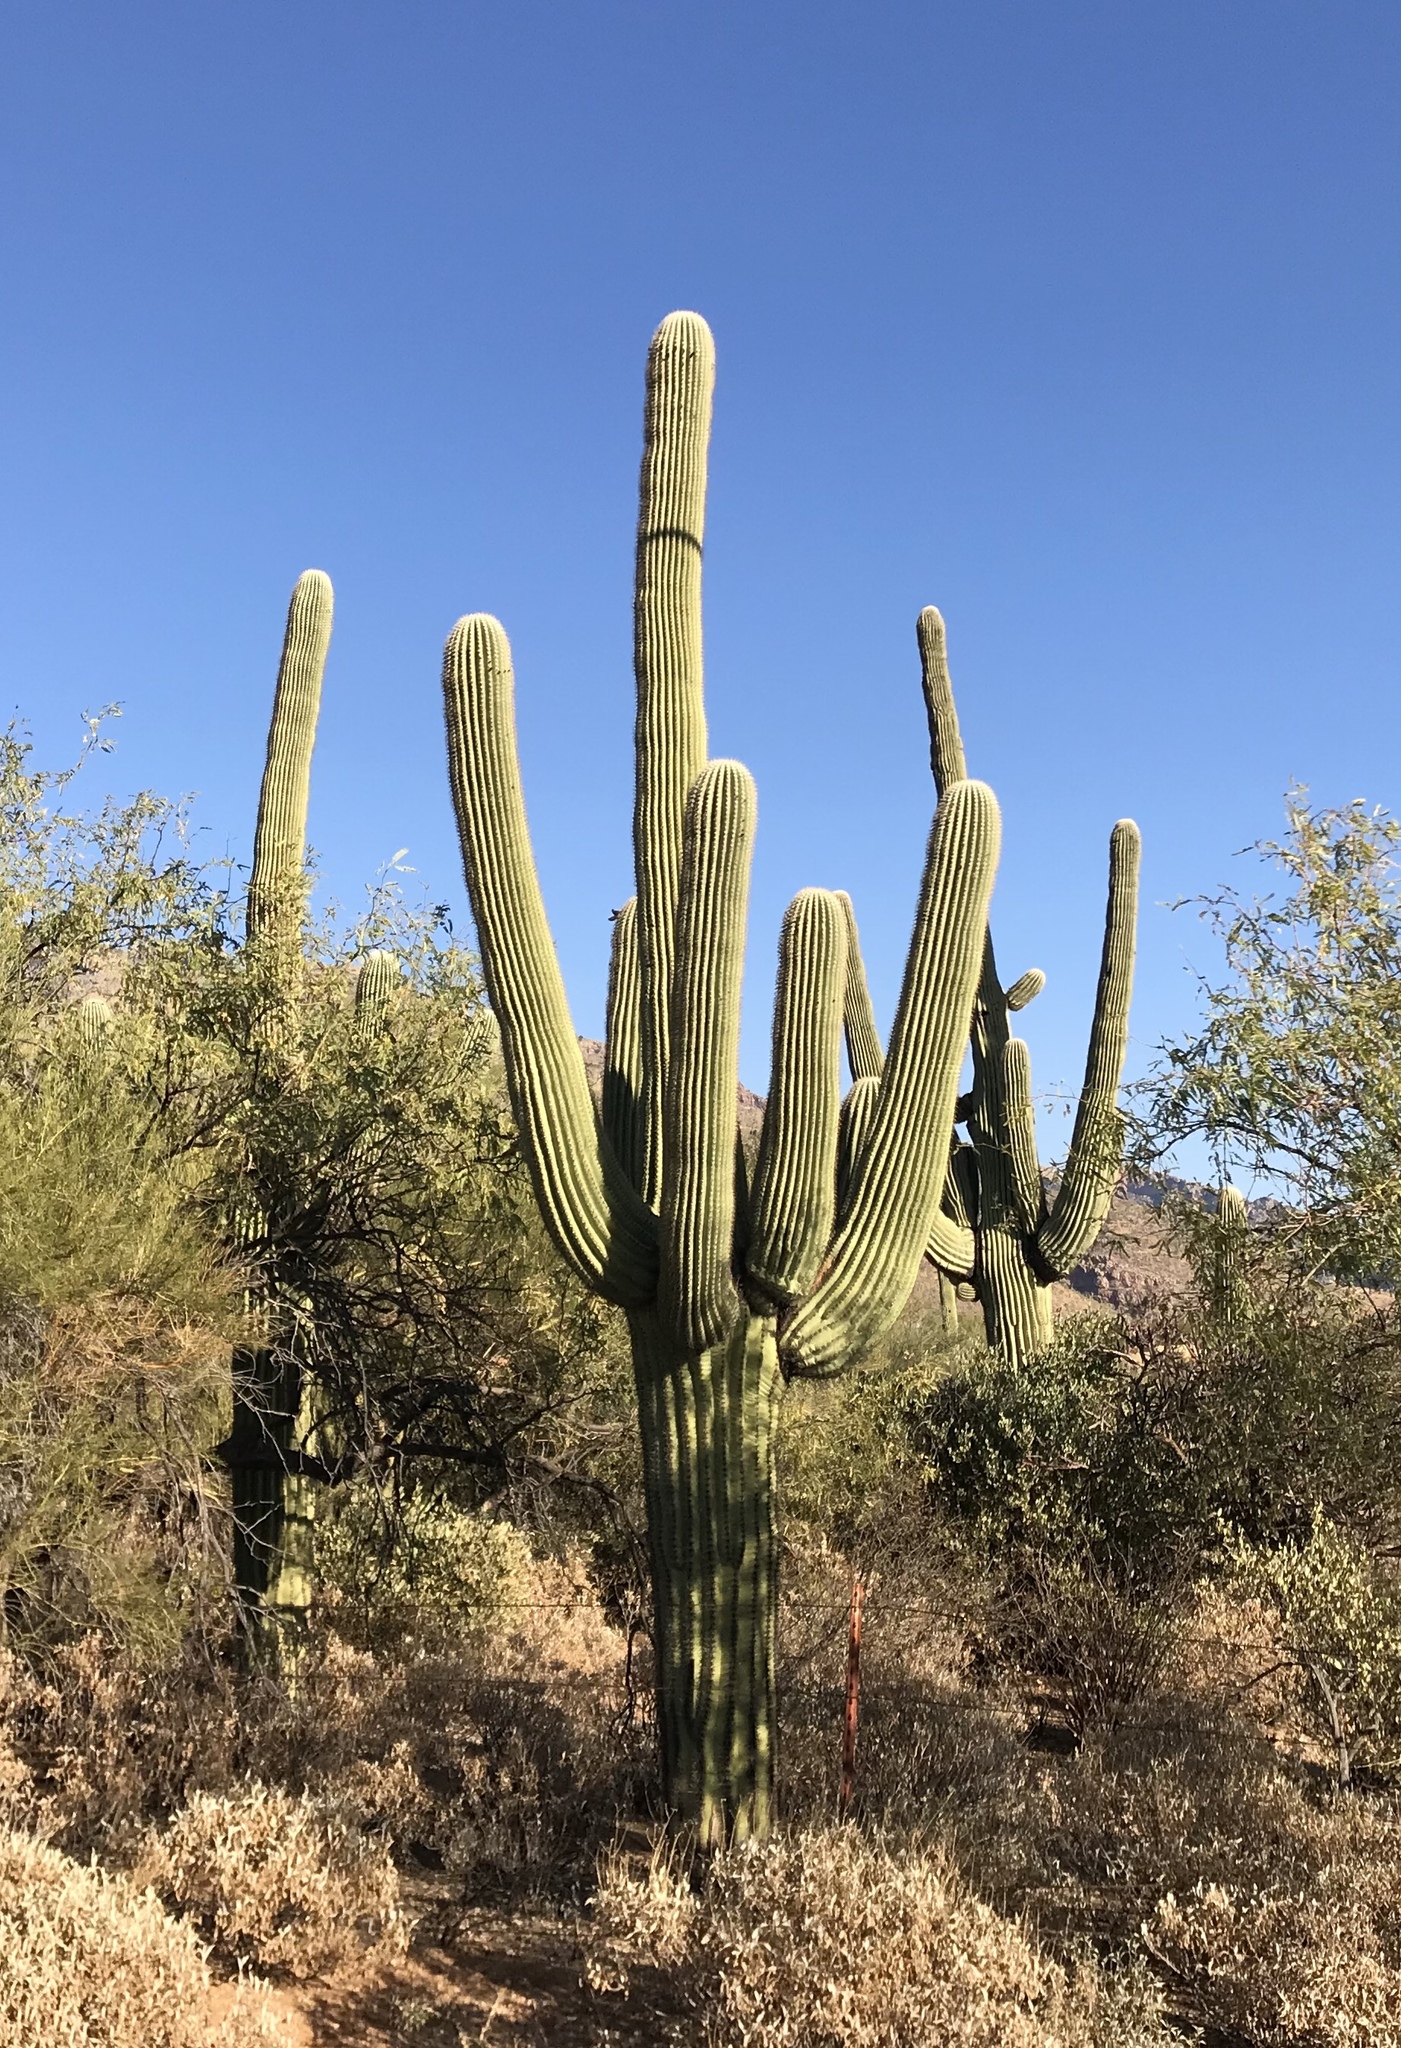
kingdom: Plantae
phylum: Tracheophyta
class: Magnoliopsida
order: Caryophyllales
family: Cactaceae
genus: Carnegiea
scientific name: Carnegiea gigantea
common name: Saguaro
